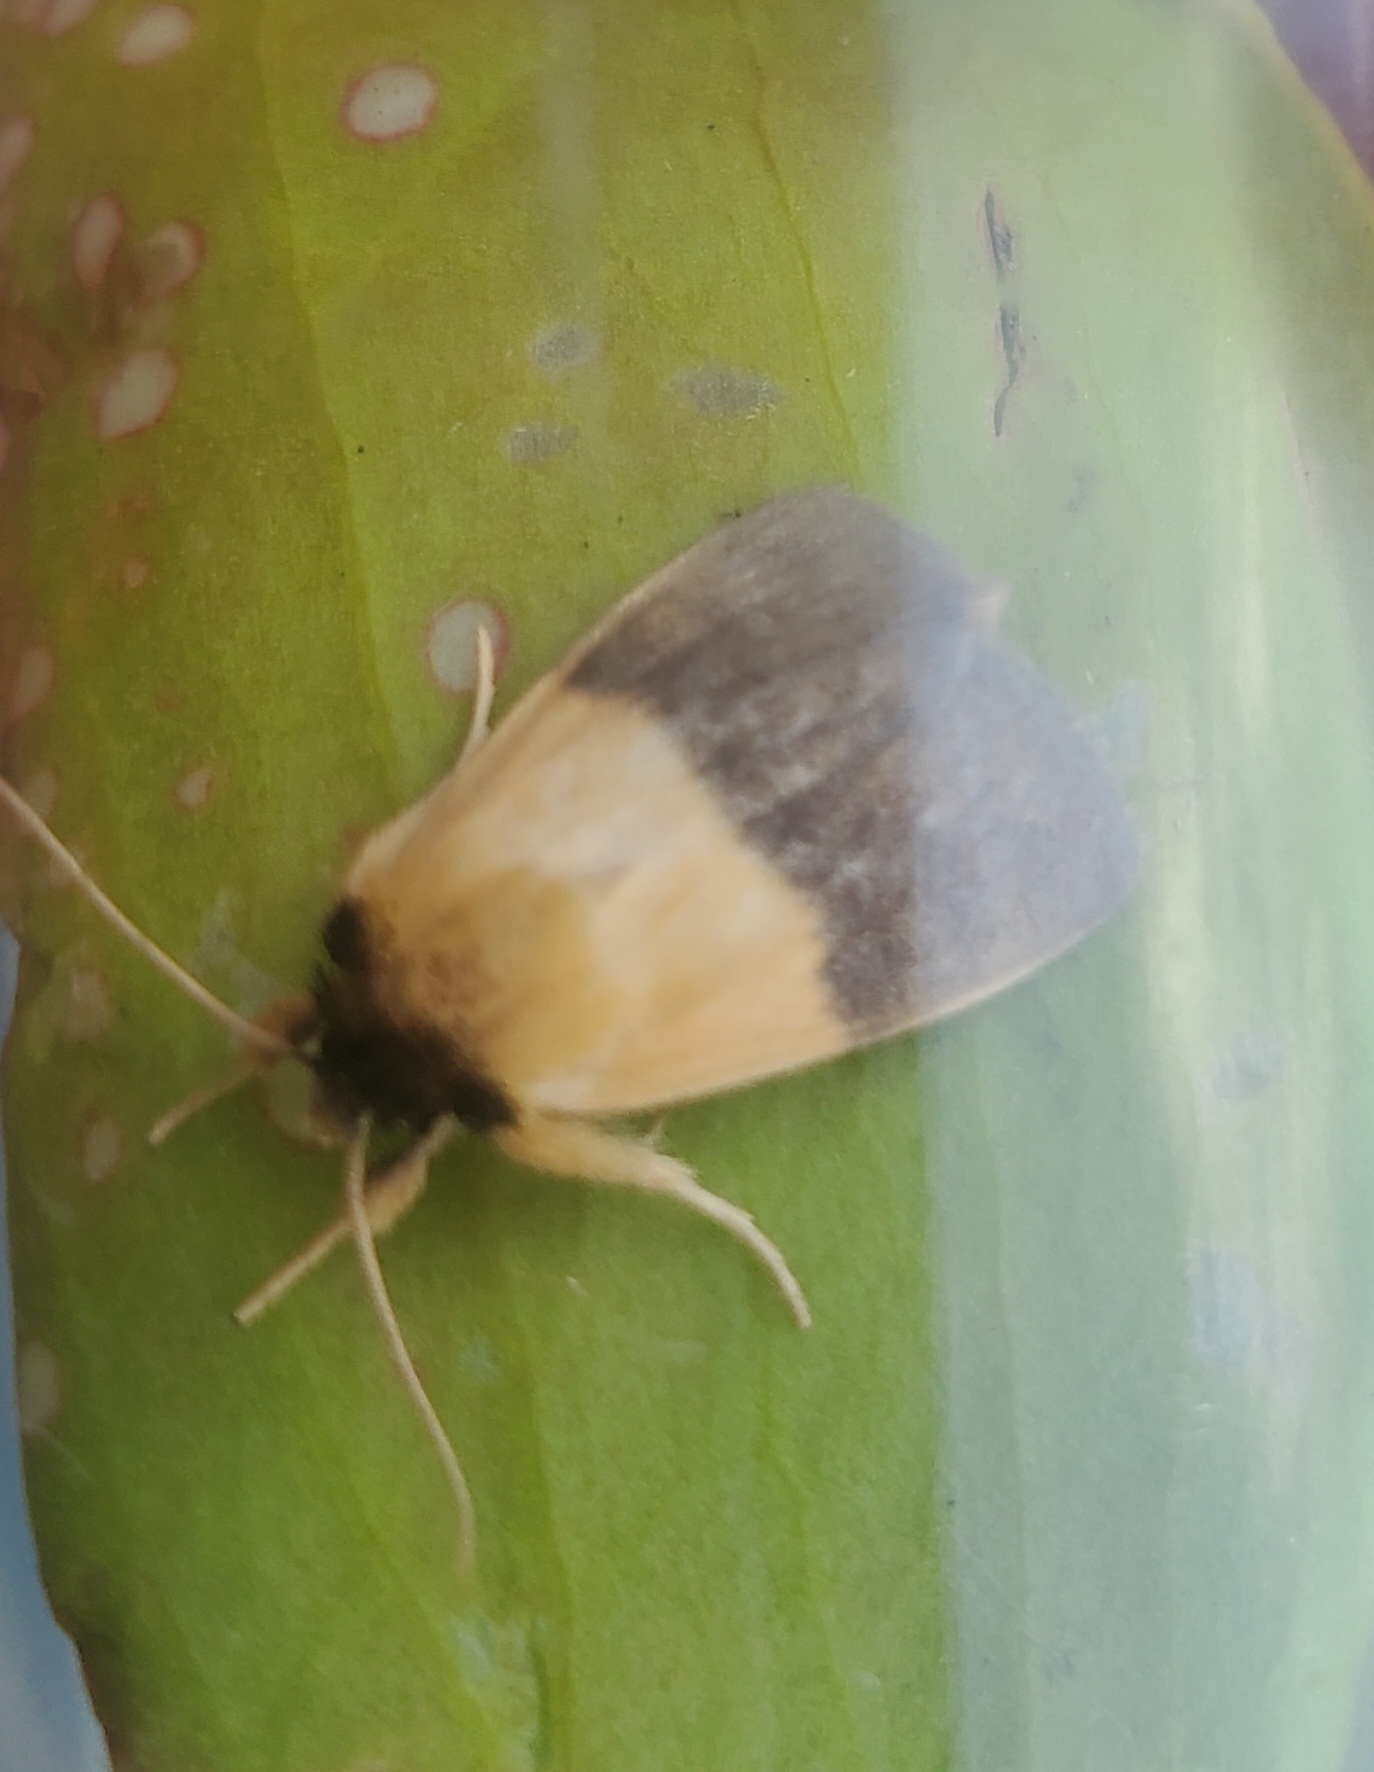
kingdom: Animalia
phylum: Arthropoda
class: Insecta
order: Lepidoptera
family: Noctuidae
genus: Exyra
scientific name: Exyra semicrocea
